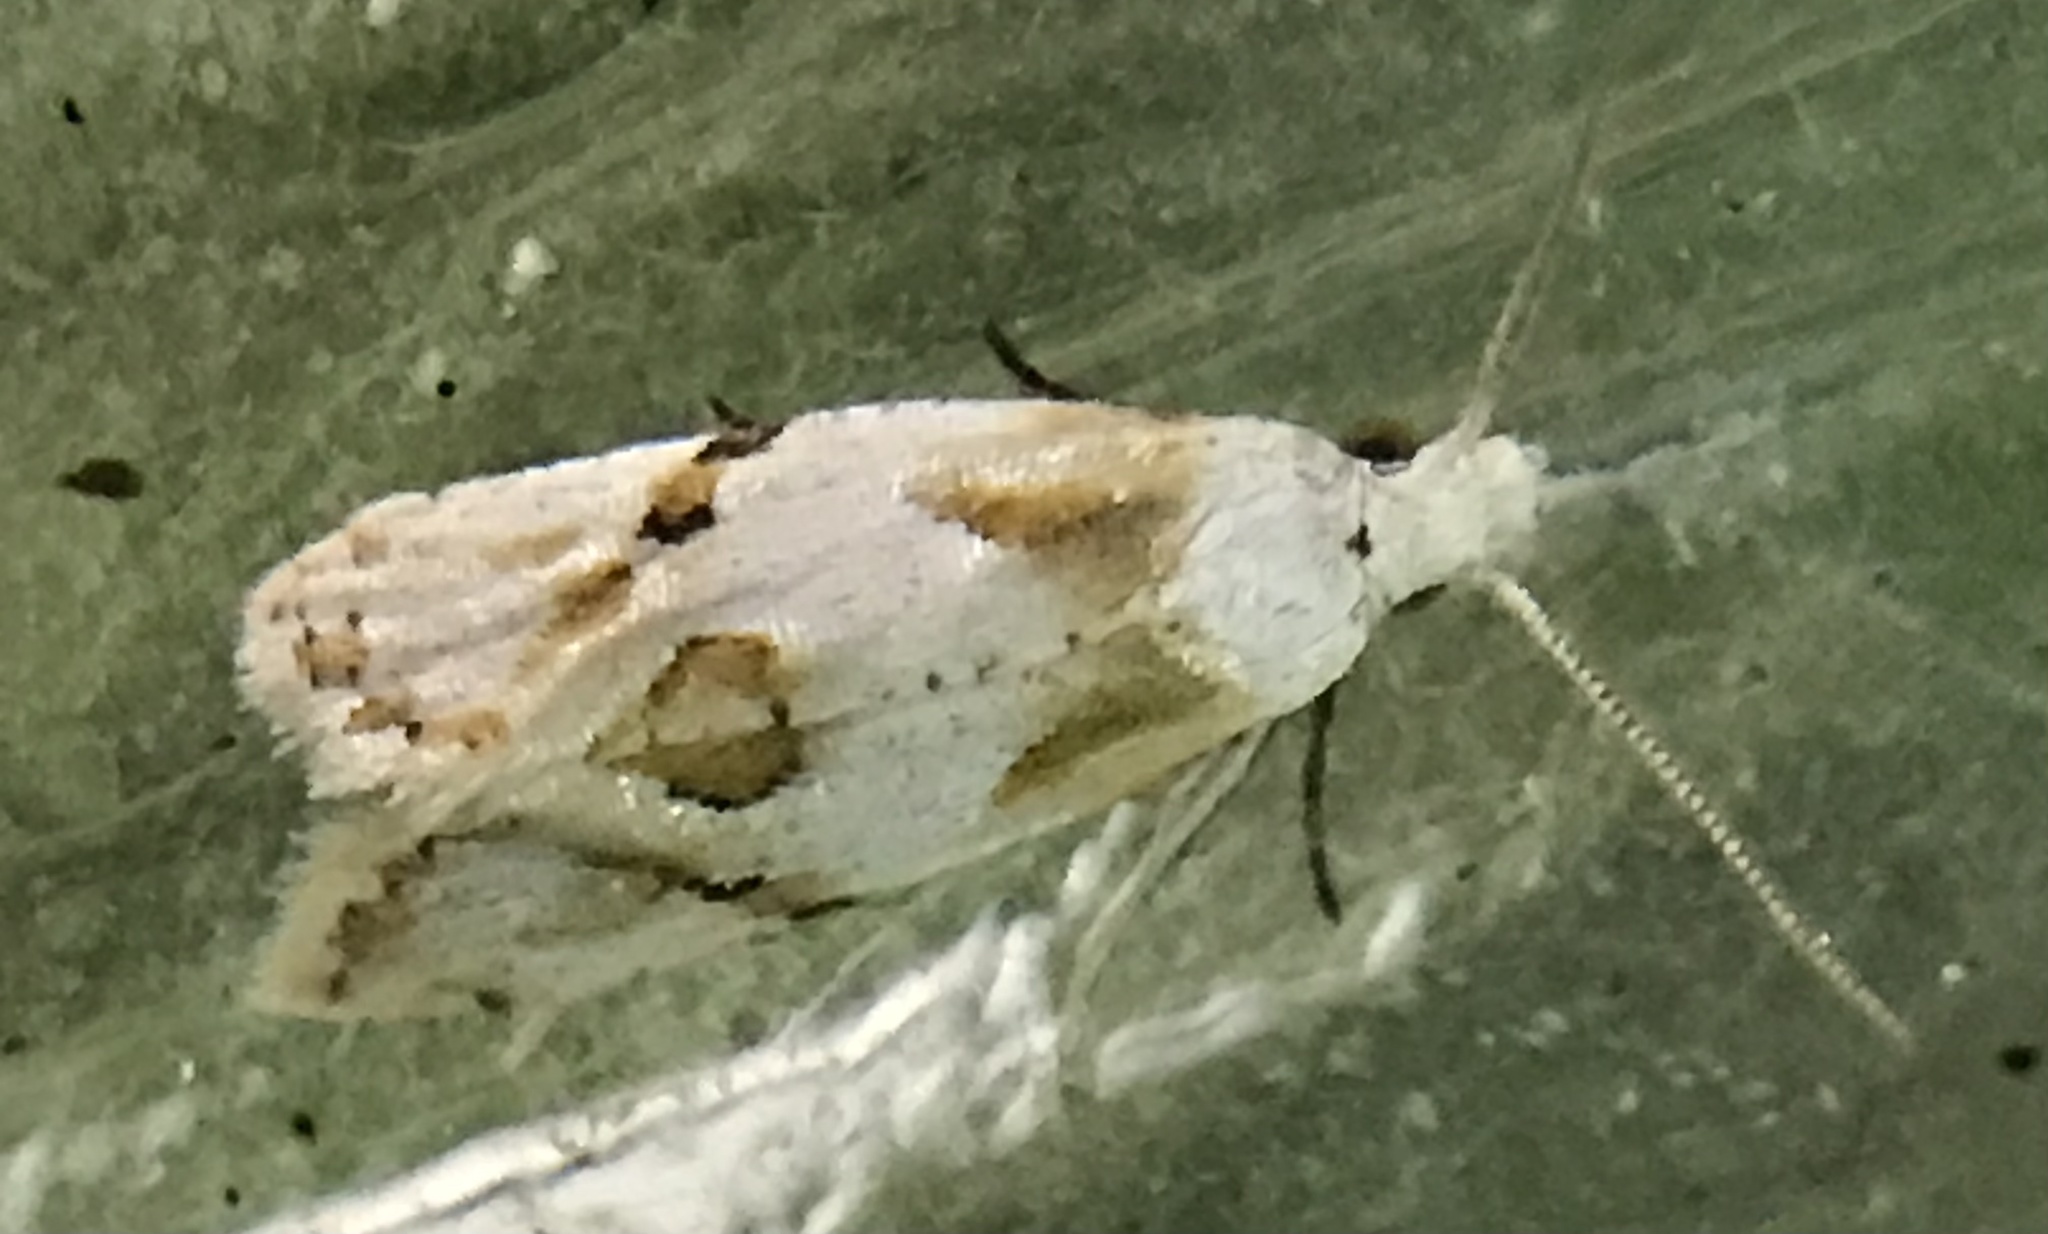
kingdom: Animalia
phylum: Arthropoda
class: Insecta
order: Lepidoptera
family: Tortricidae
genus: Aethes
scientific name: Aethes seriatana
